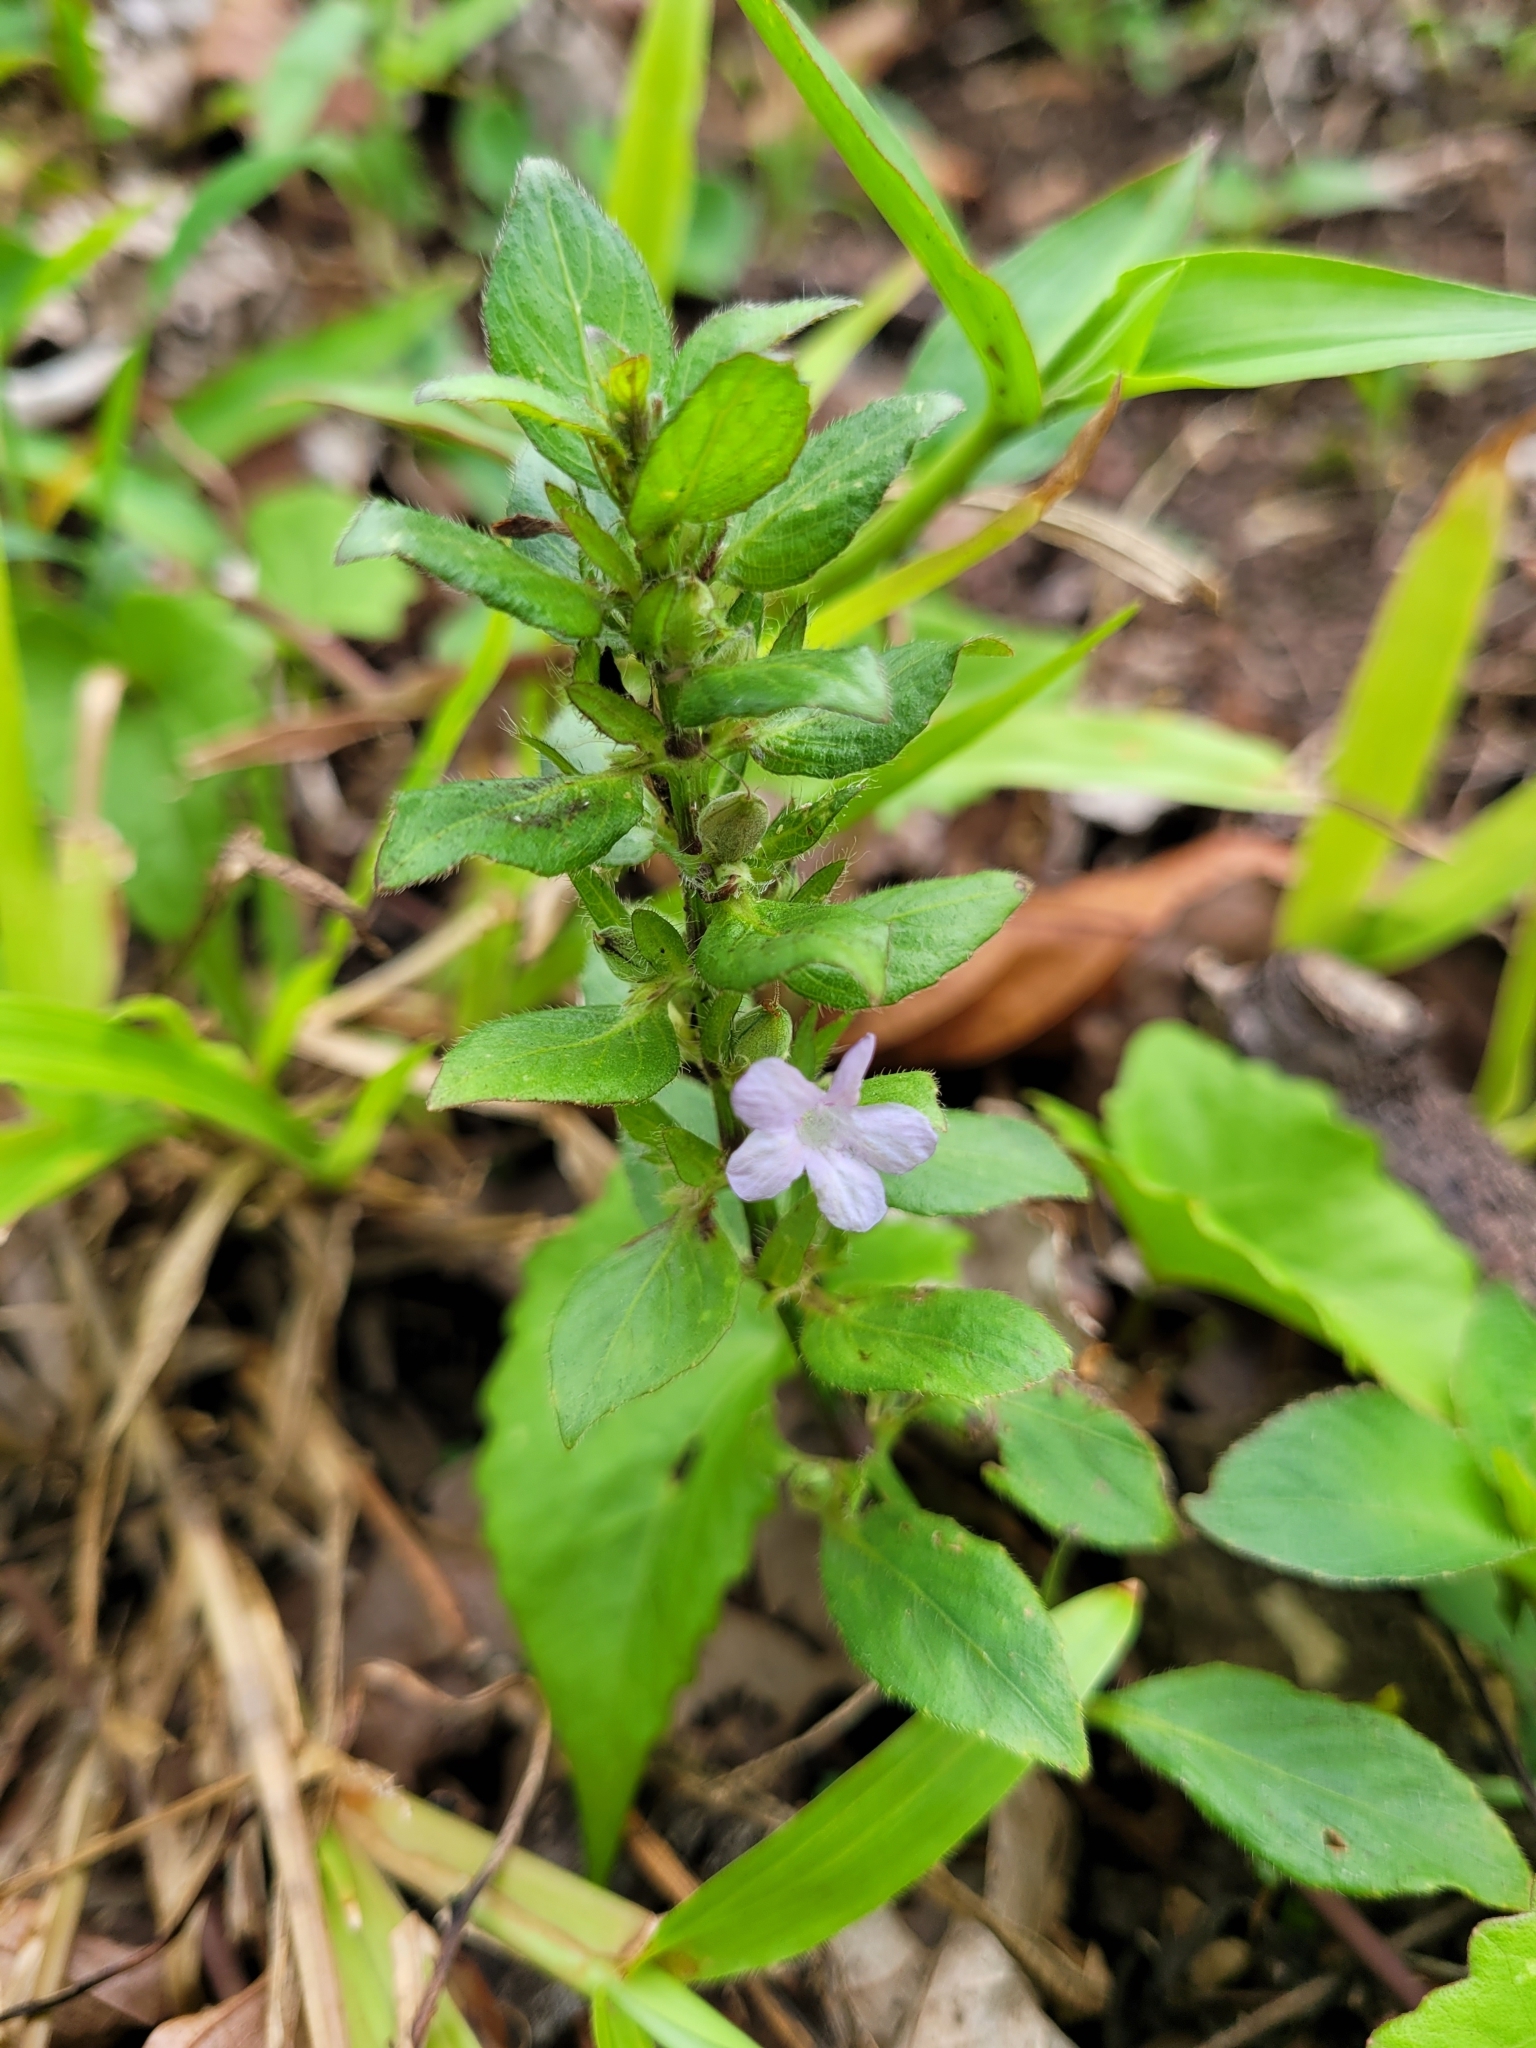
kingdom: Plantae
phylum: Tracheophyta
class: Magnoliopsida
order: Lamiales
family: Acanthaceae
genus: Ruellia
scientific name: Ruellia blechum
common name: Browne's blechum
